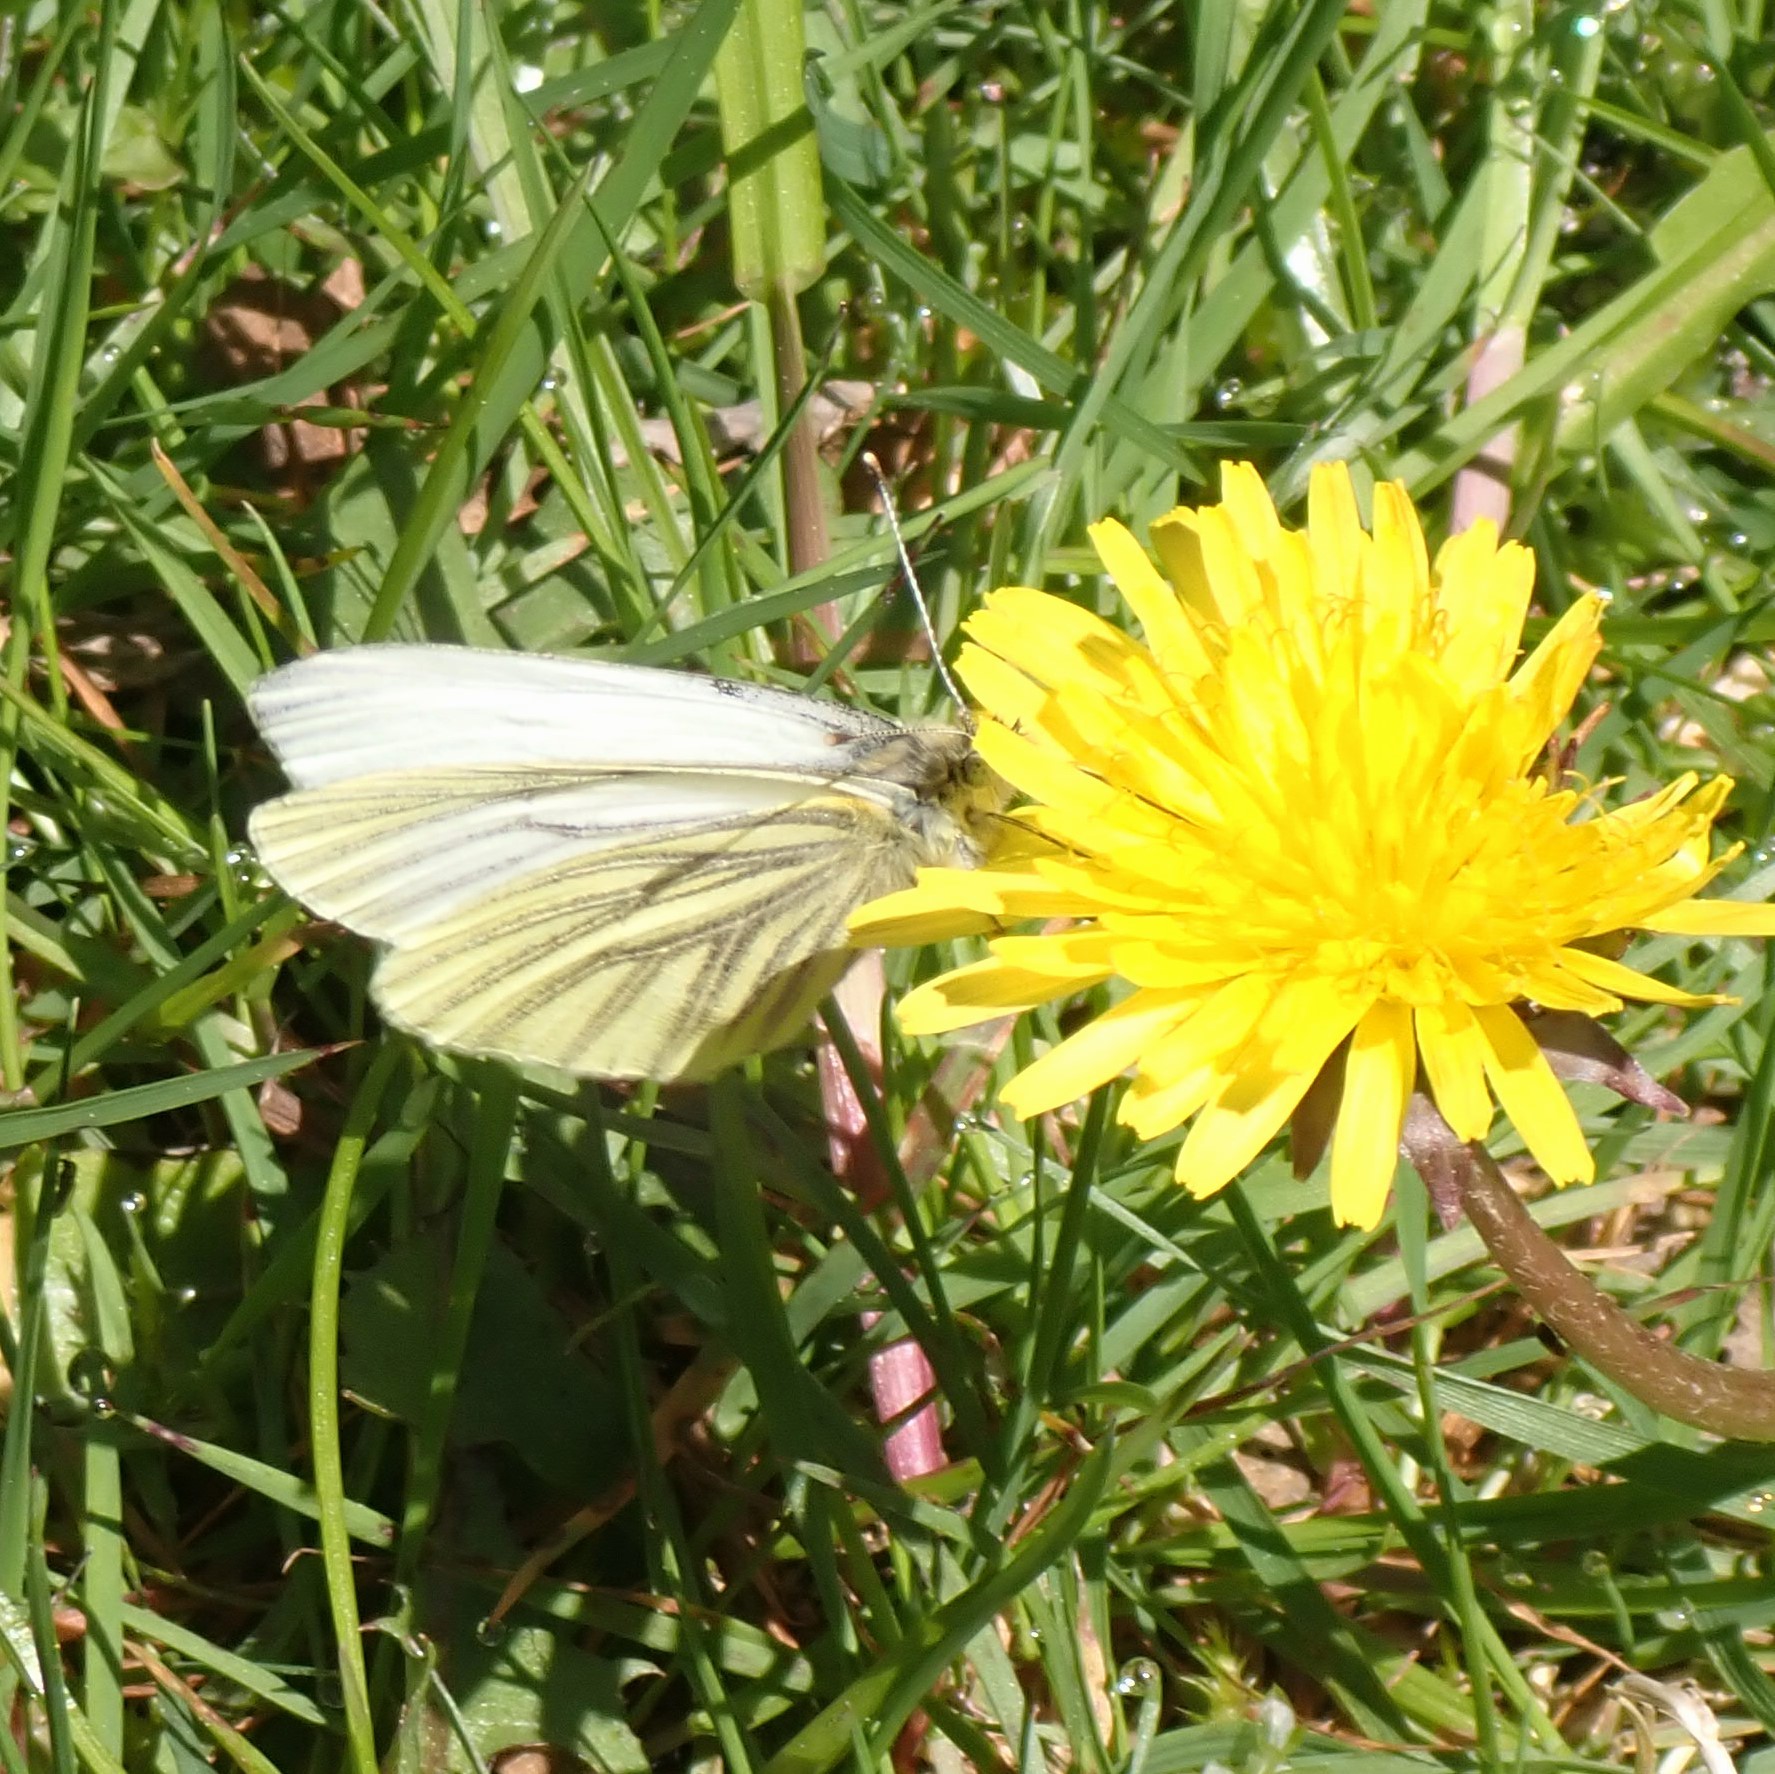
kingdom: Animalia
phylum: Arthropoda
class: Insecta
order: Lepidoptera
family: Pieridae
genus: Pieris
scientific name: Pieris marginalis
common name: Margined white
